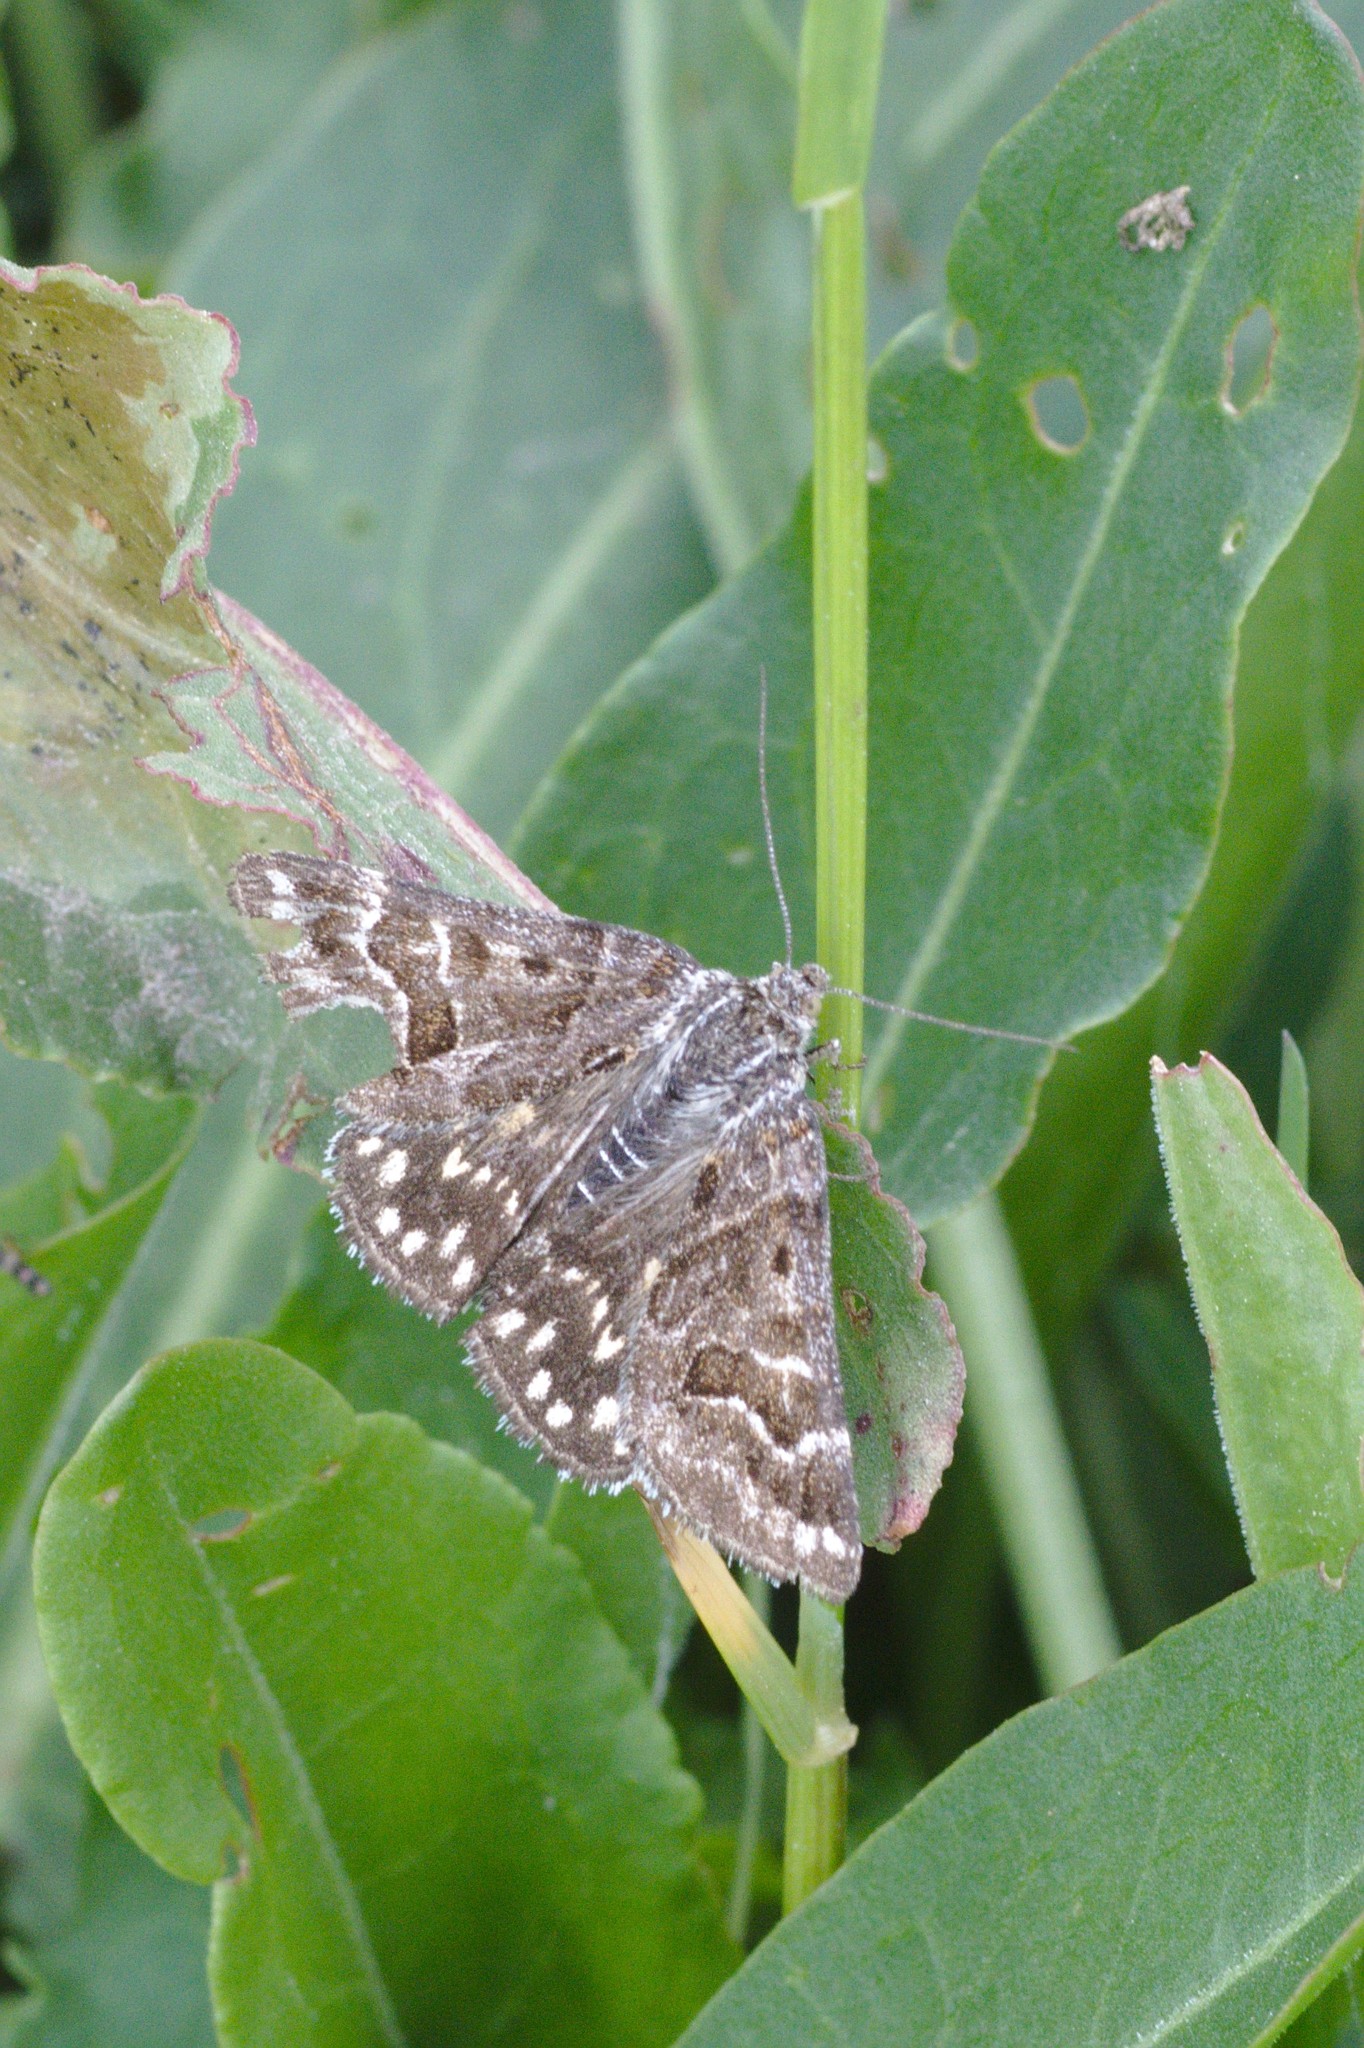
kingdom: Animalia
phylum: Arthropoda
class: Insecta
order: Lepidoptera
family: Erebidae
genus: Callistege
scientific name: Callistege mi
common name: Mother shipton
